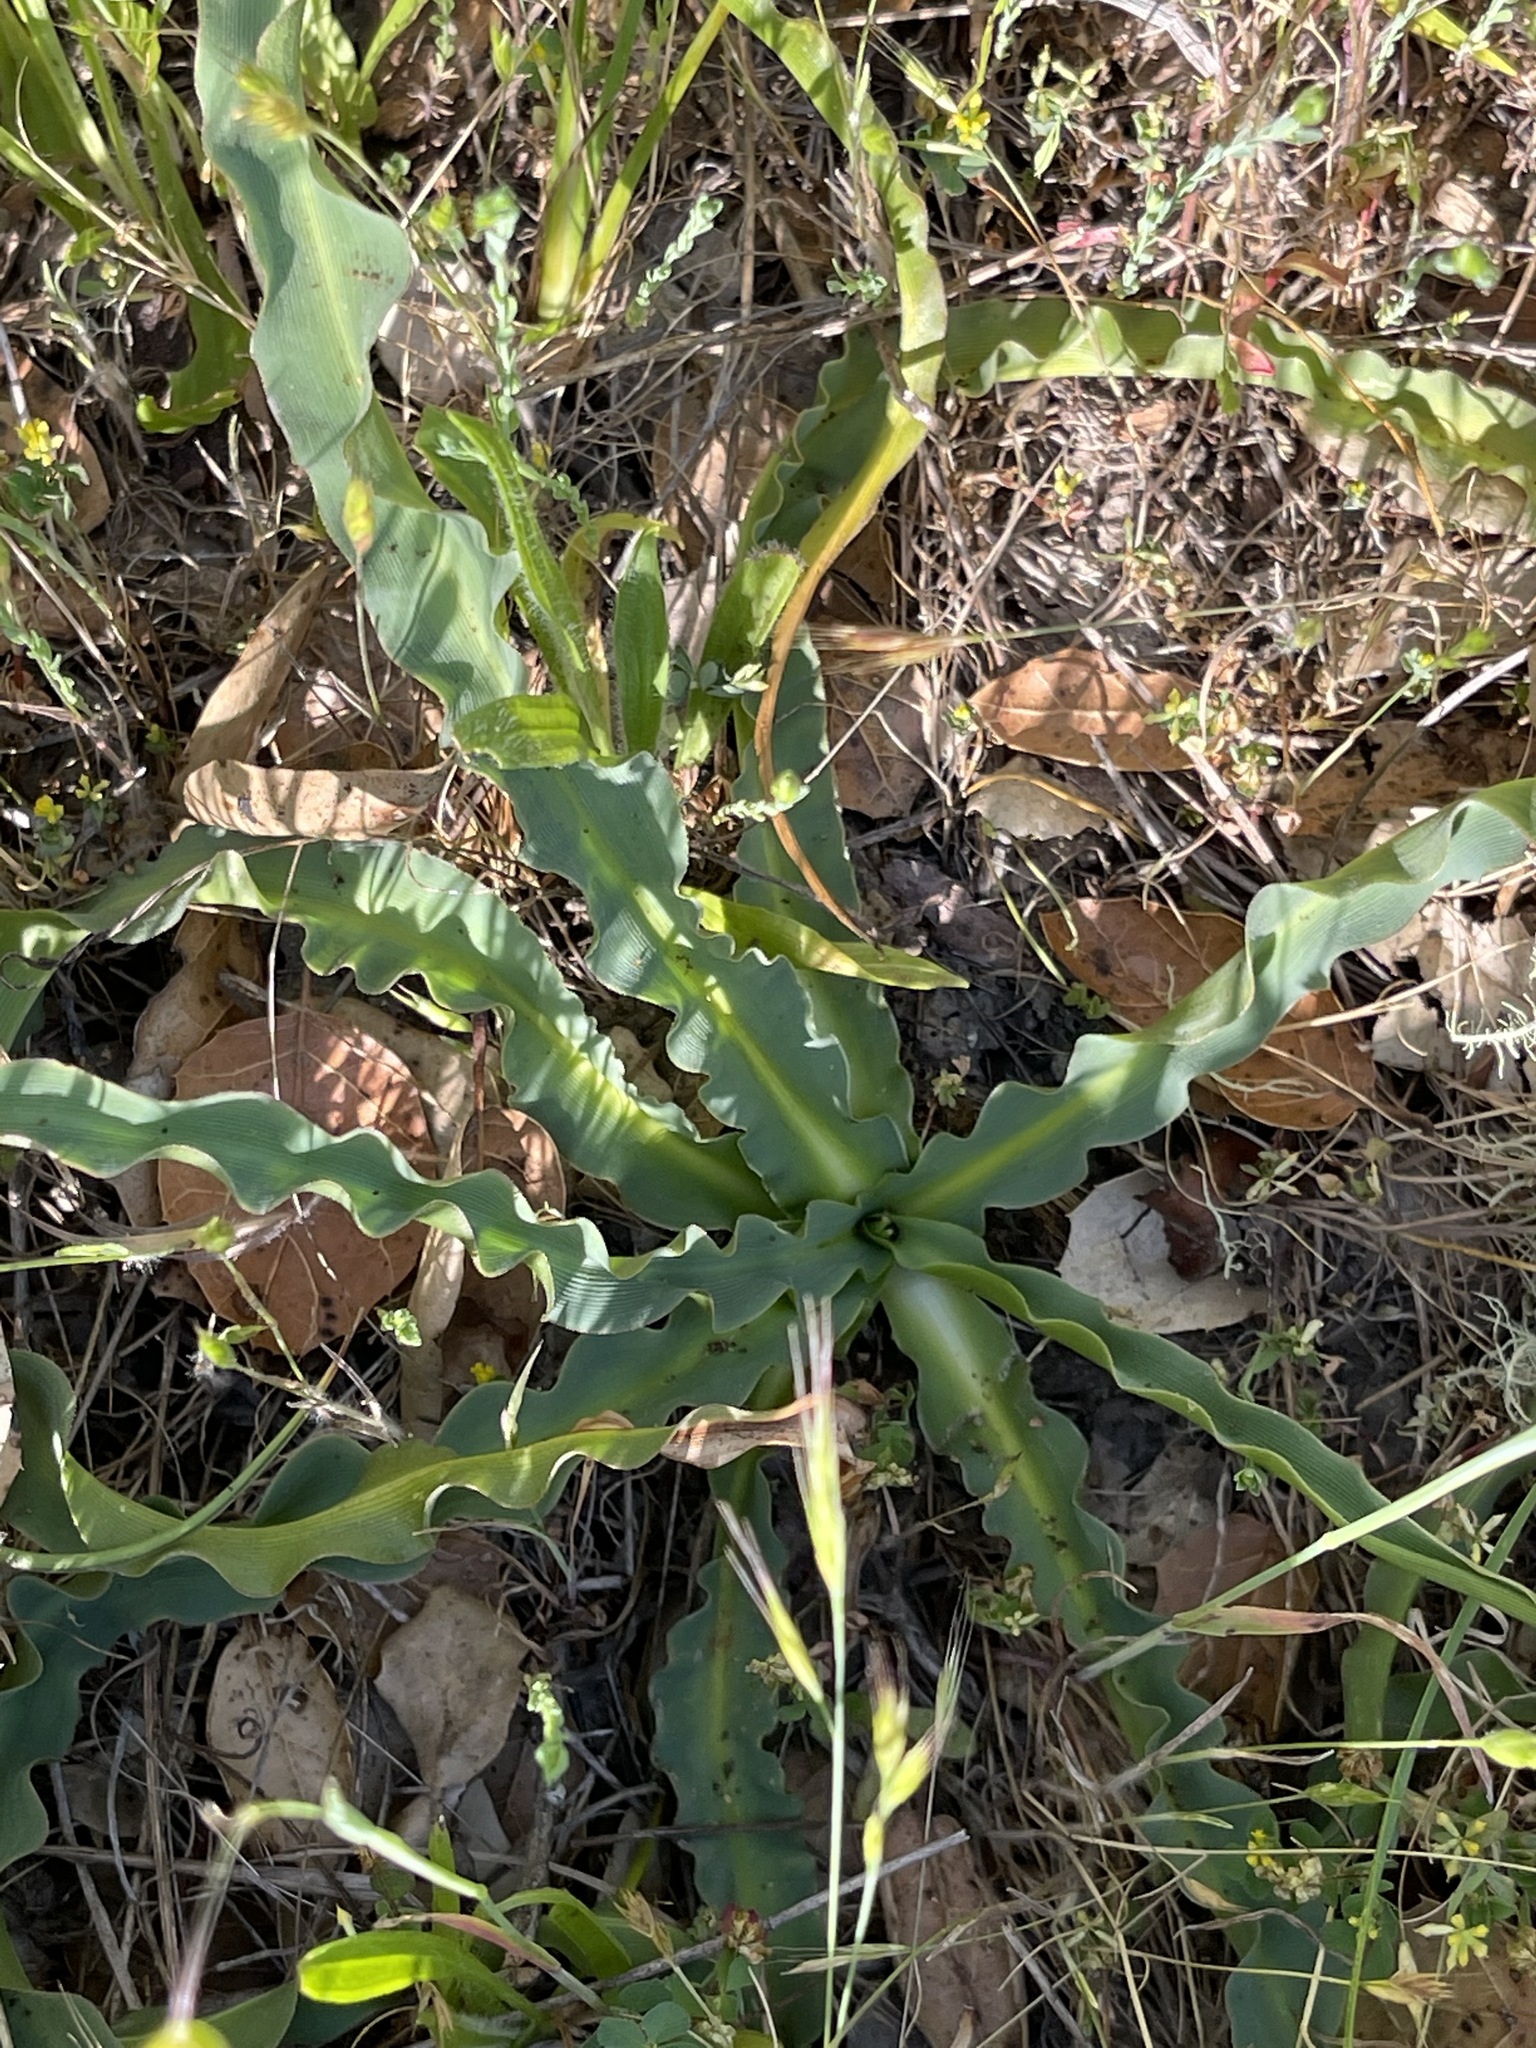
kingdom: Plantae
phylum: Tracheophyta
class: Liliopsida
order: Asparagales
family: Asparagaceae
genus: Chlorogalum
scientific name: Chlorogalum pomeridianum
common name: Amole
